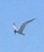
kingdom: Animalia
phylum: Chordata
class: Aves
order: Charadriiformes
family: Laridae
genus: Sterna
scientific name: Sterna hirundo
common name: Common tern
